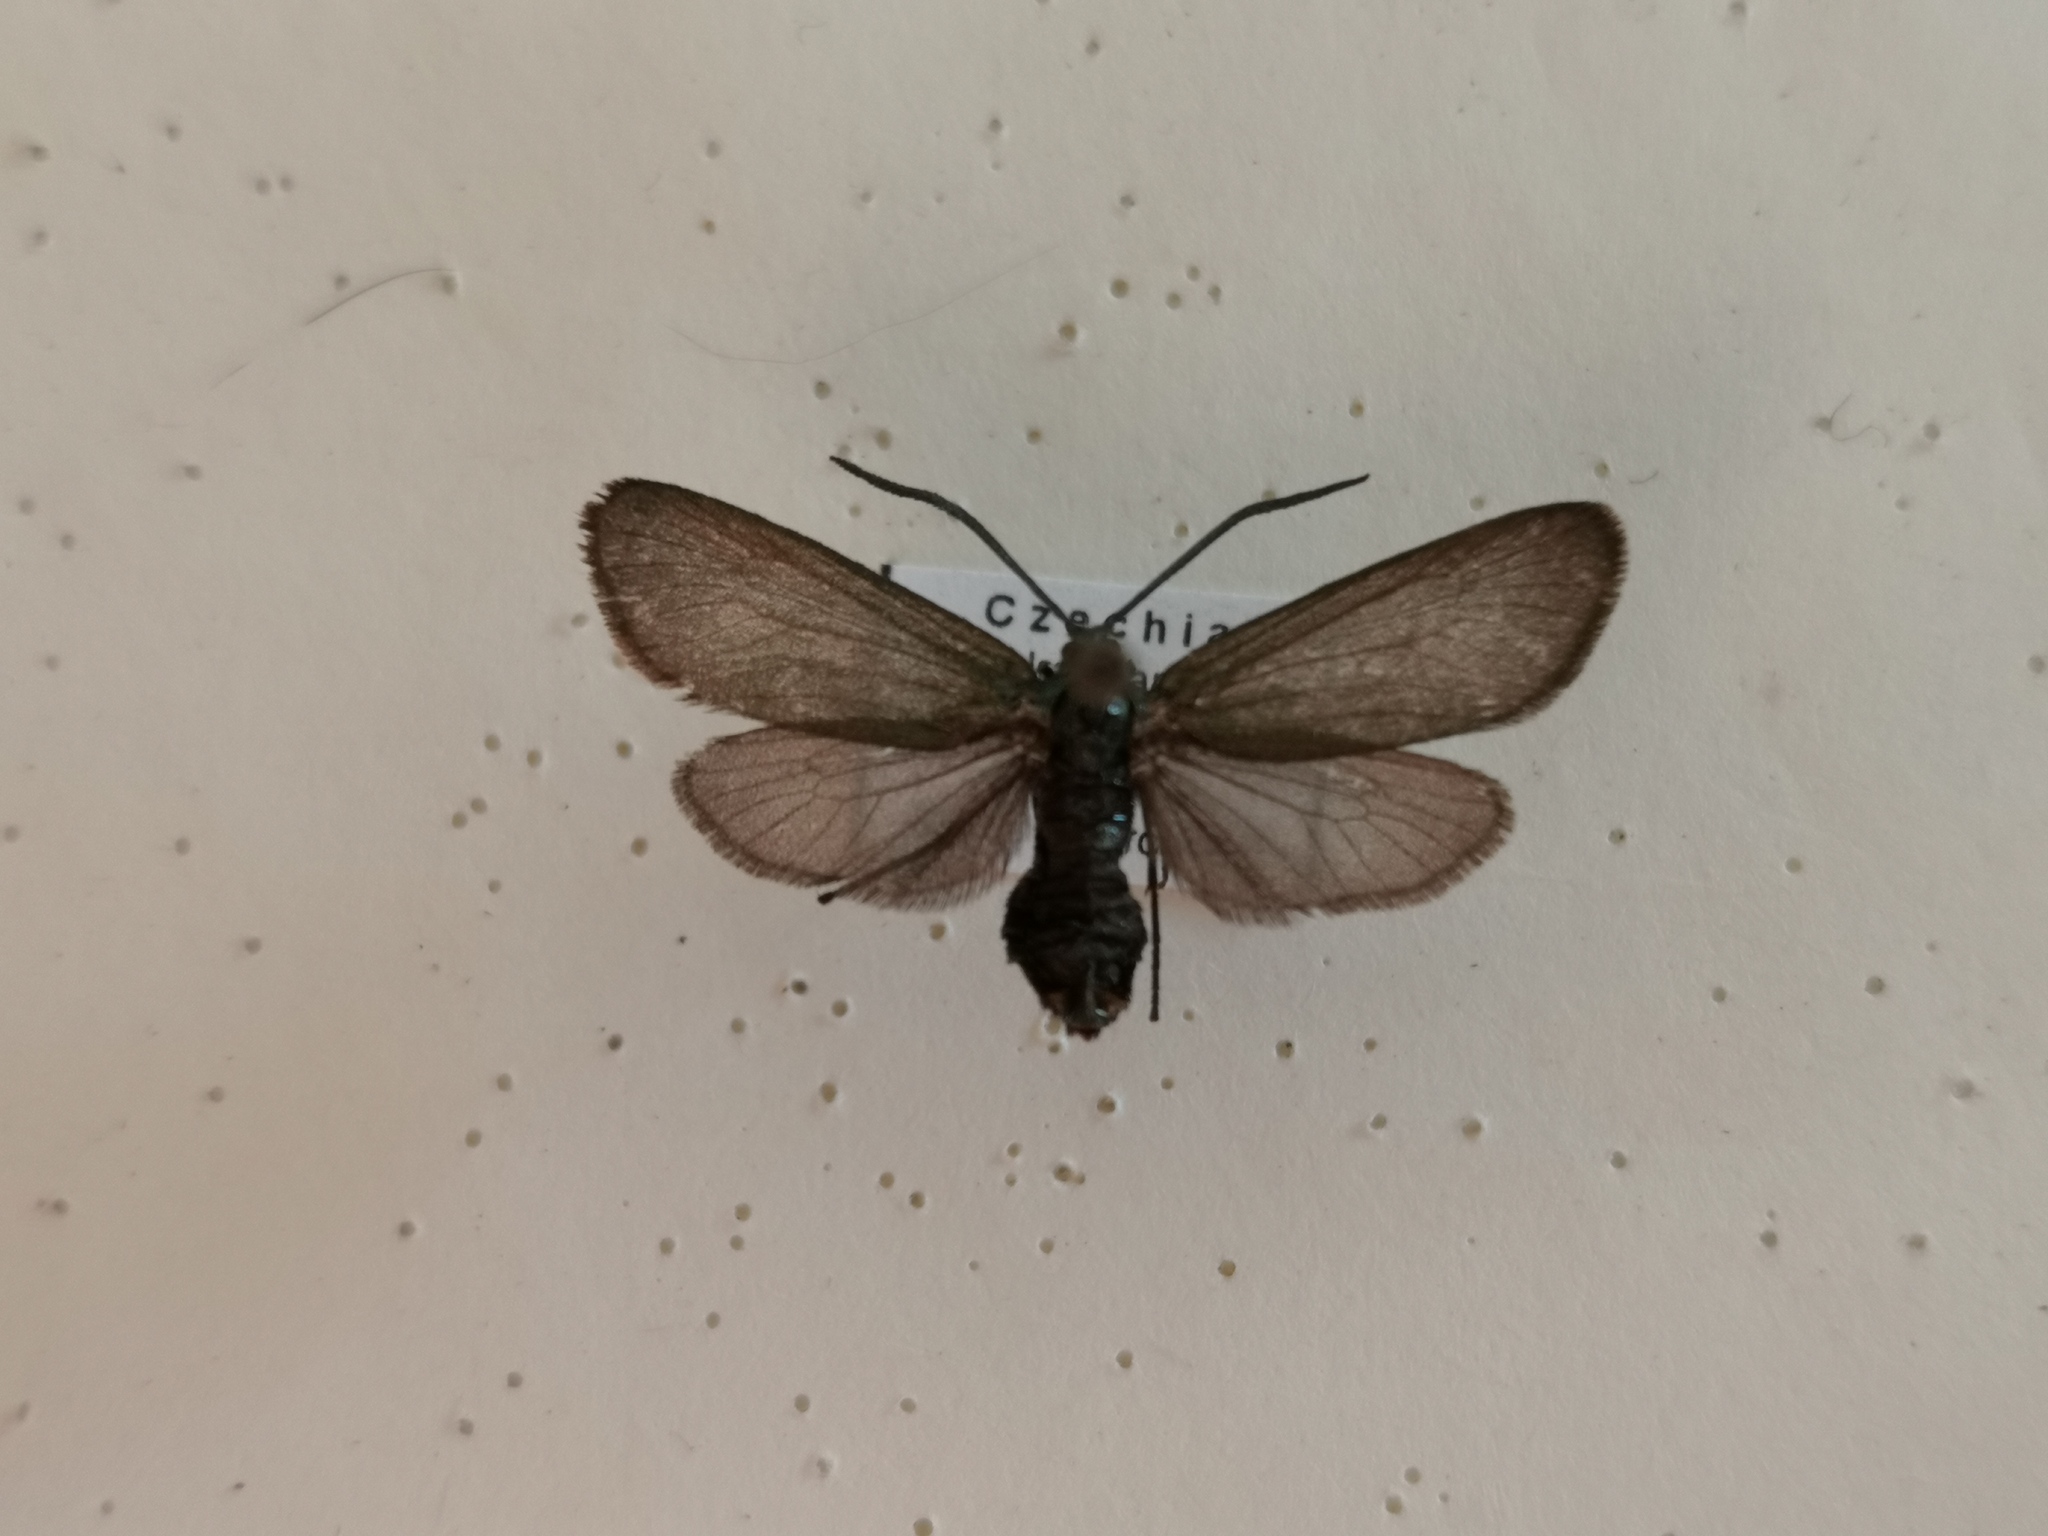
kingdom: Animalia
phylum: Arthropoda
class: Insecta
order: Lepidoptera
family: Zygaenidae
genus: Rhagades
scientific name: Rhagades pruni
